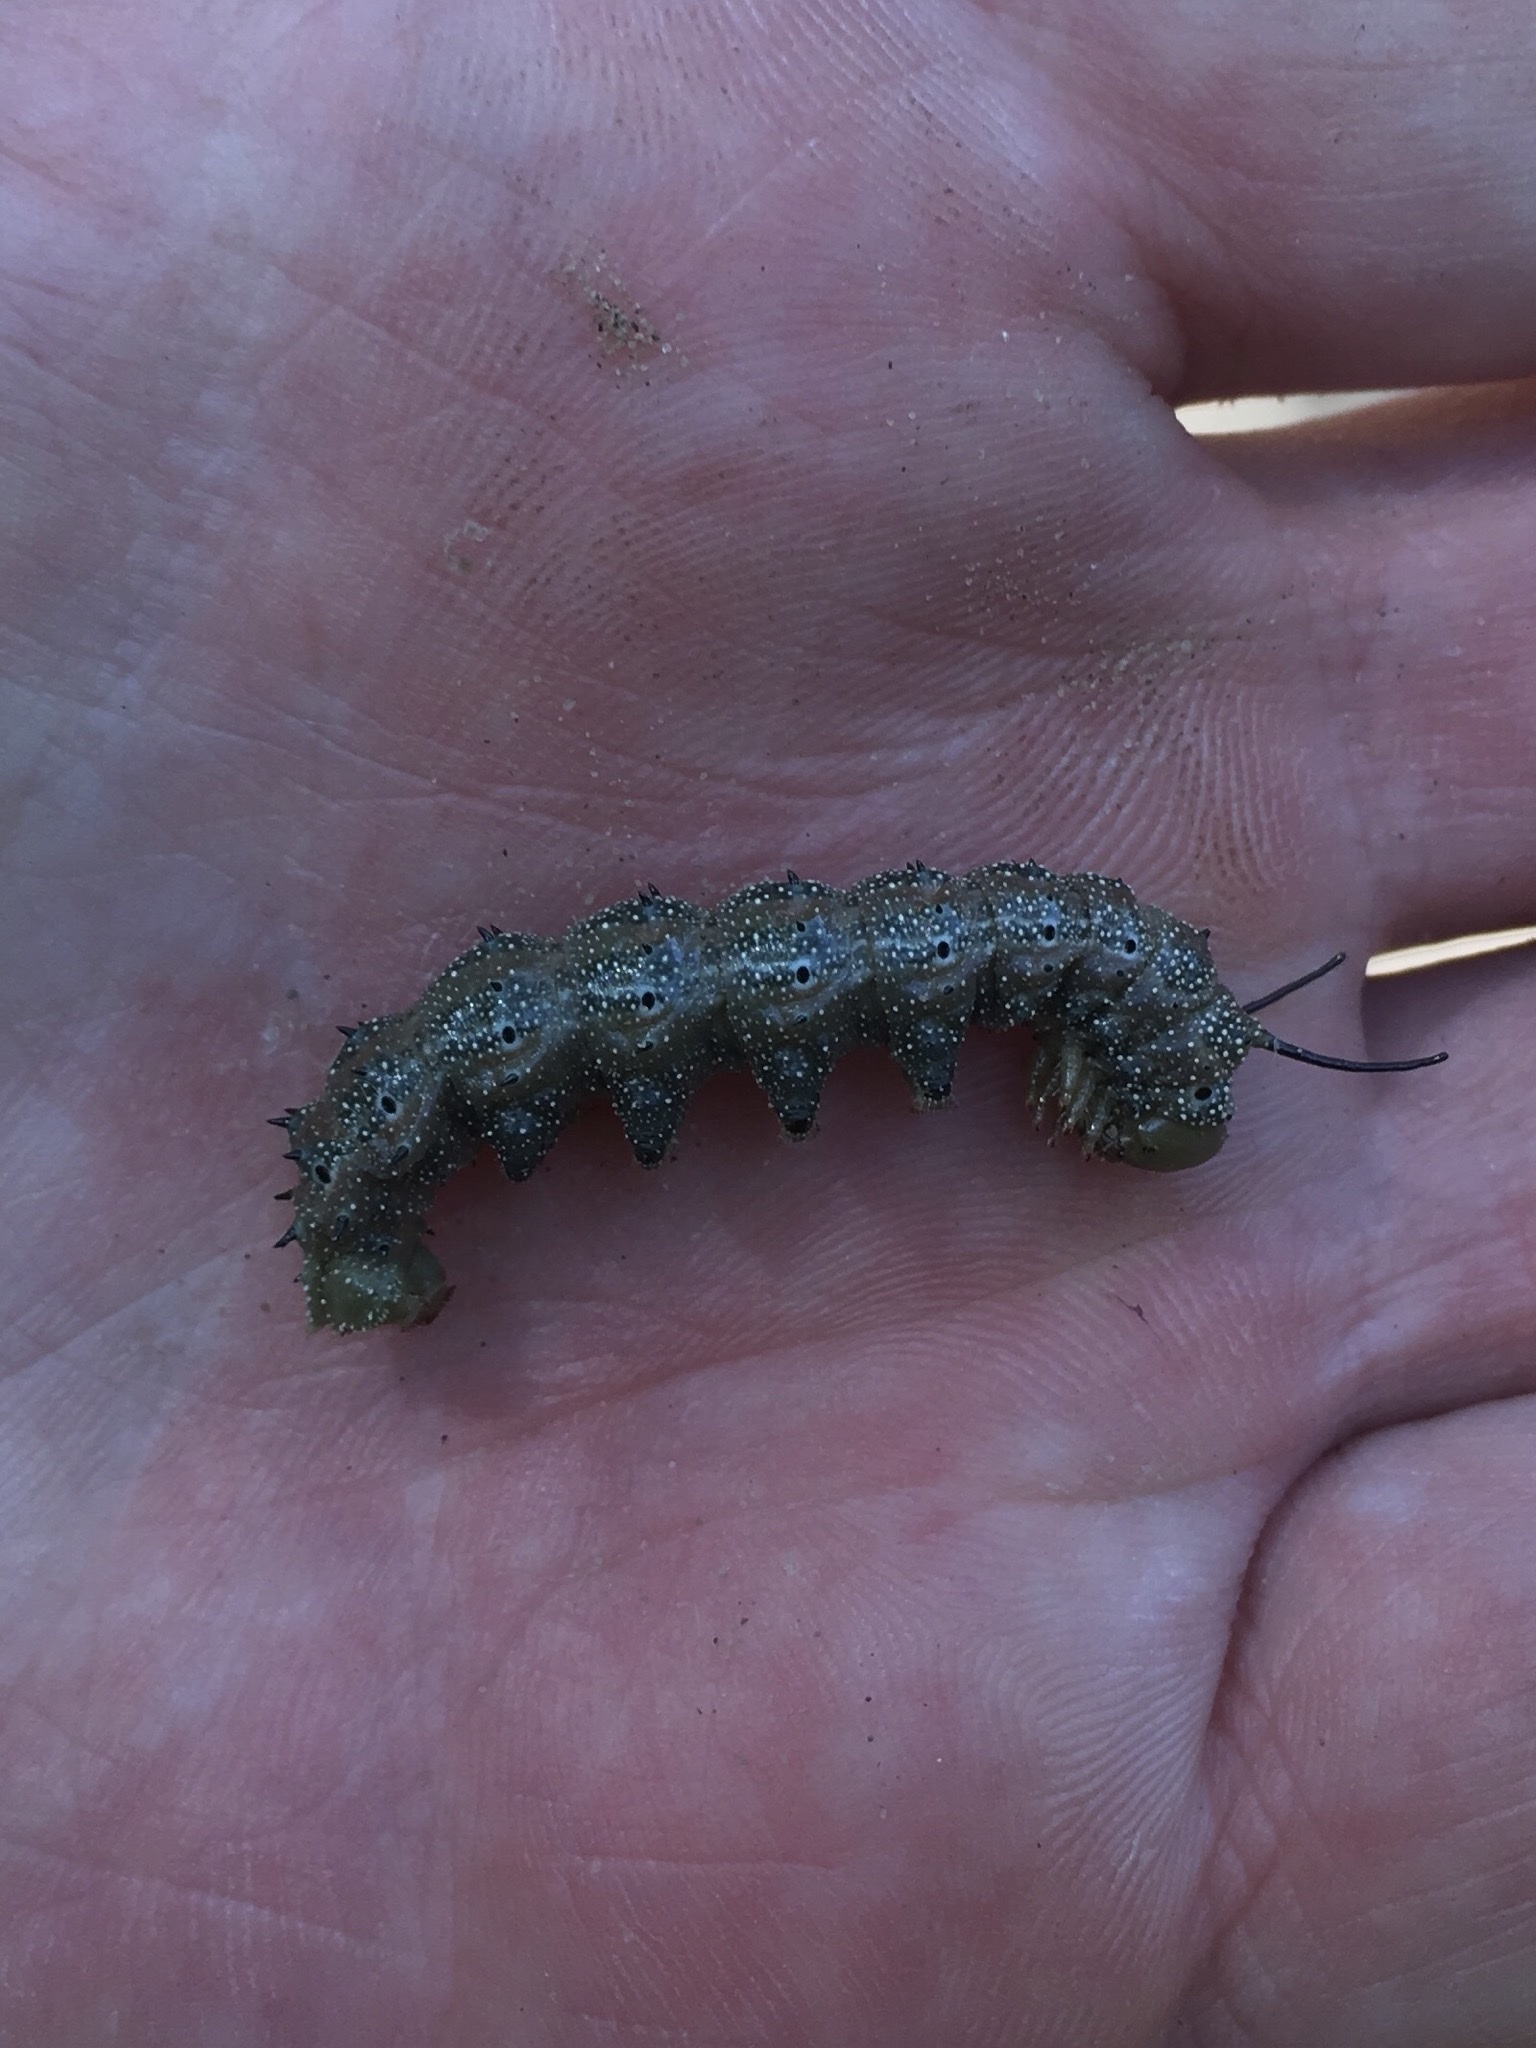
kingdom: Animalia
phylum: Arthropoda
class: Insecta
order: Lepidoptera
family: Saturniidae
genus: Anisota
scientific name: Anisota virginiensis
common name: Pink striped oakworm moth
